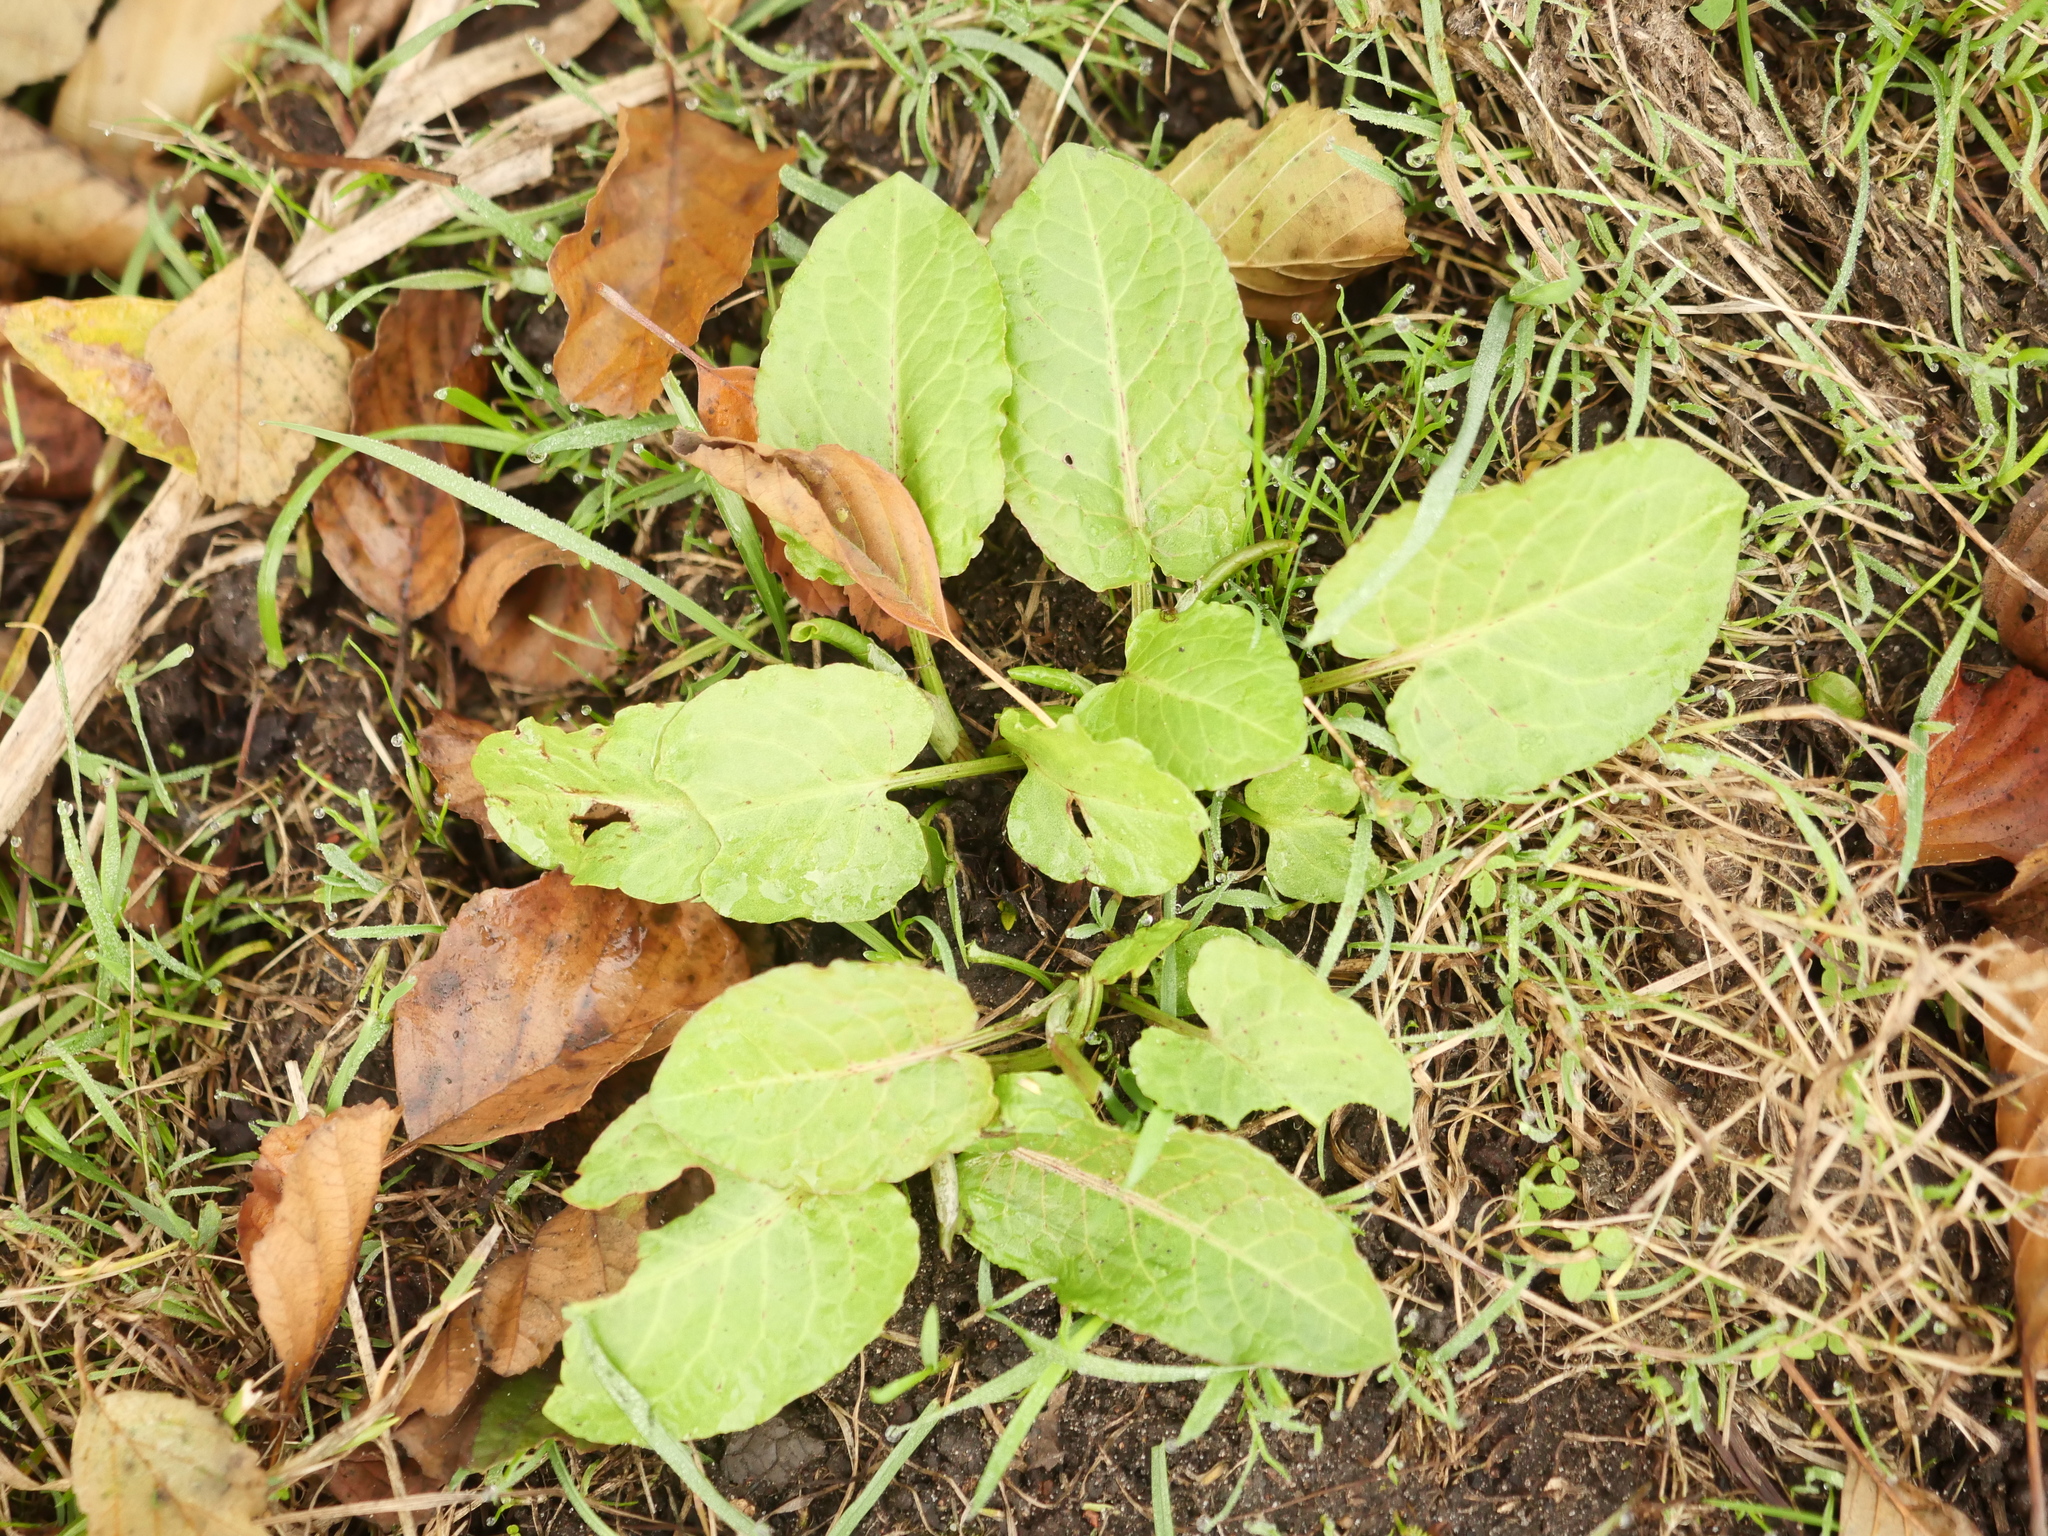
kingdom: Plantae
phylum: Tracheophyta
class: Magnoliopsida
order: Caryophyllales
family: Polygonaceae
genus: Rumex
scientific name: Rumex obtusifolius
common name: Bitter dock
